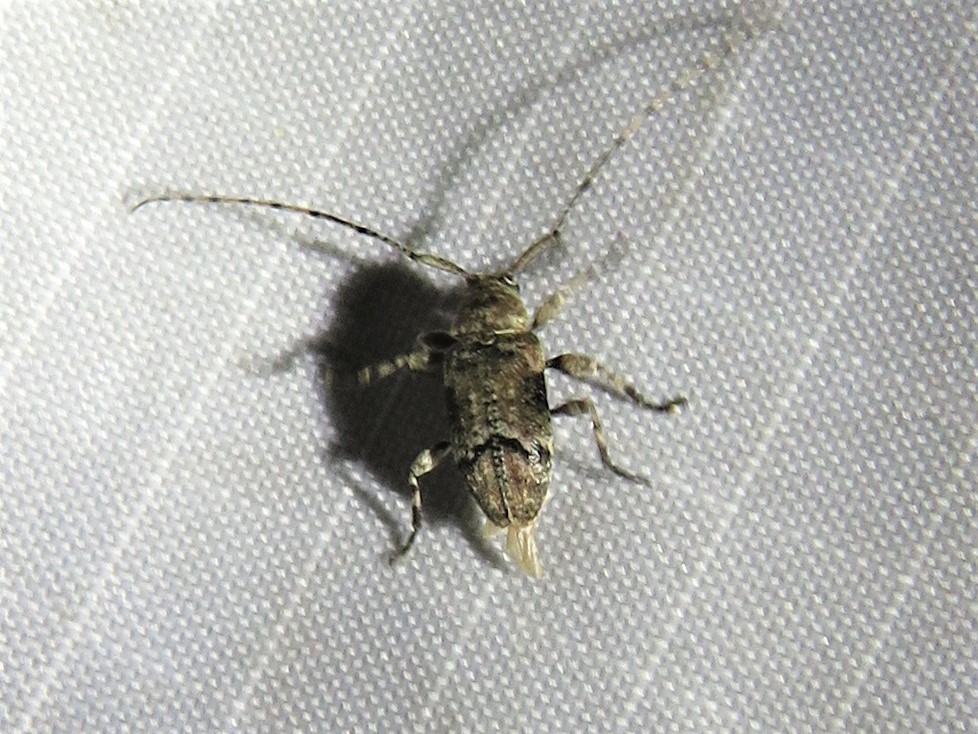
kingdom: Animalia
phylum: Arthropoda
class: Insecta
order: Coleoptera
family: Cerambycidae
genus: Sternidius
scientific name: Sternidius mimeticus
